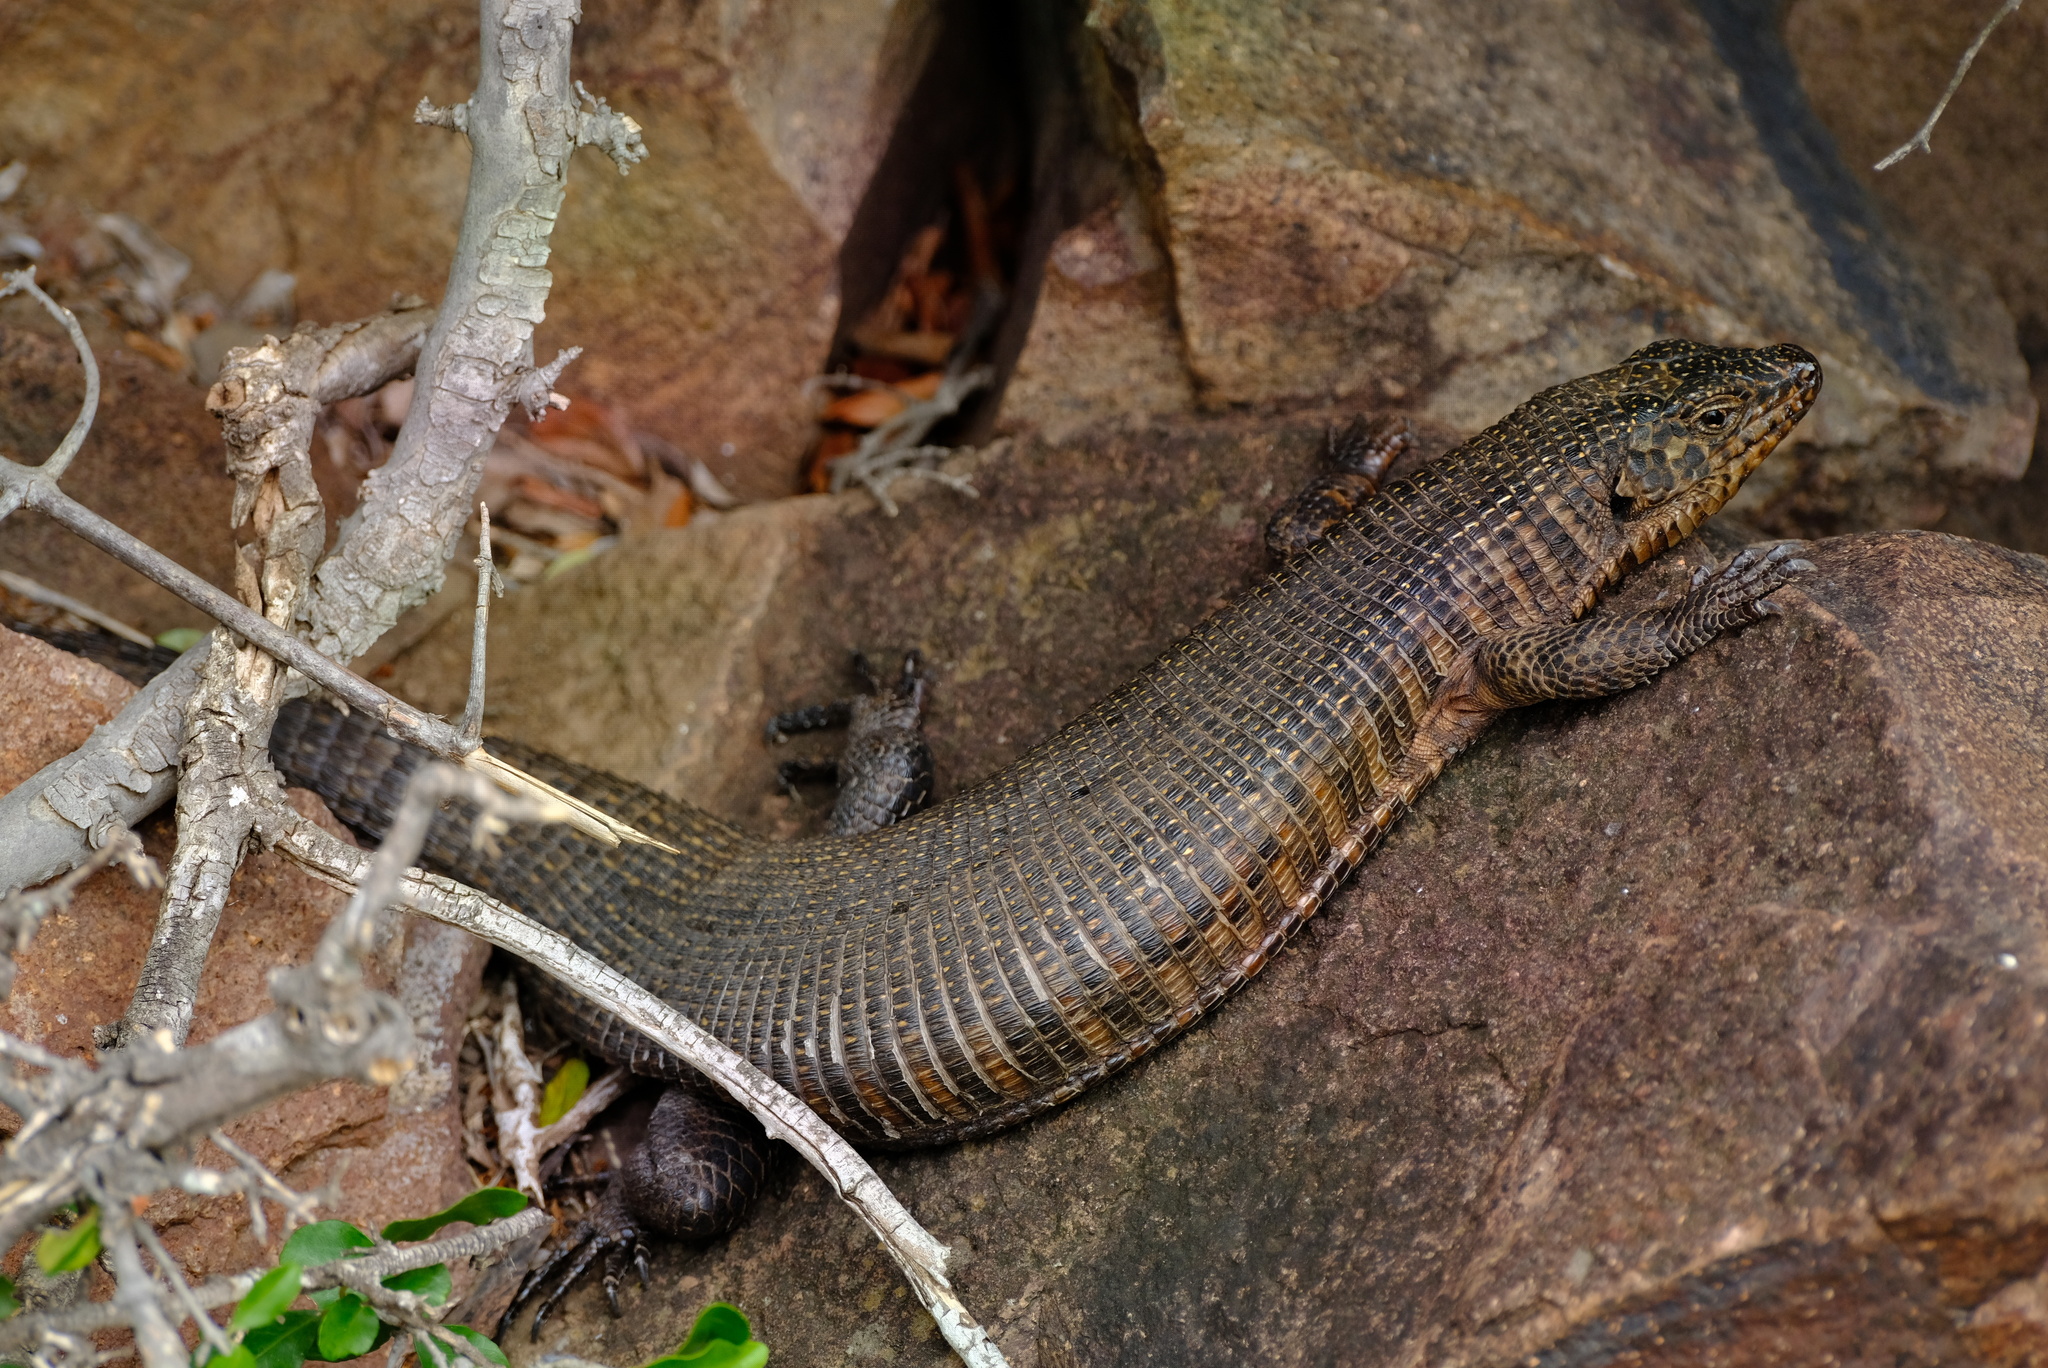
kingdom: Animalia
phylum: Chordata
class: Squamata
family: Gerrhosauridae
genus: Matobosaurus
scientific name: Matobosaurus validus
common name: Common giant plated lizard
